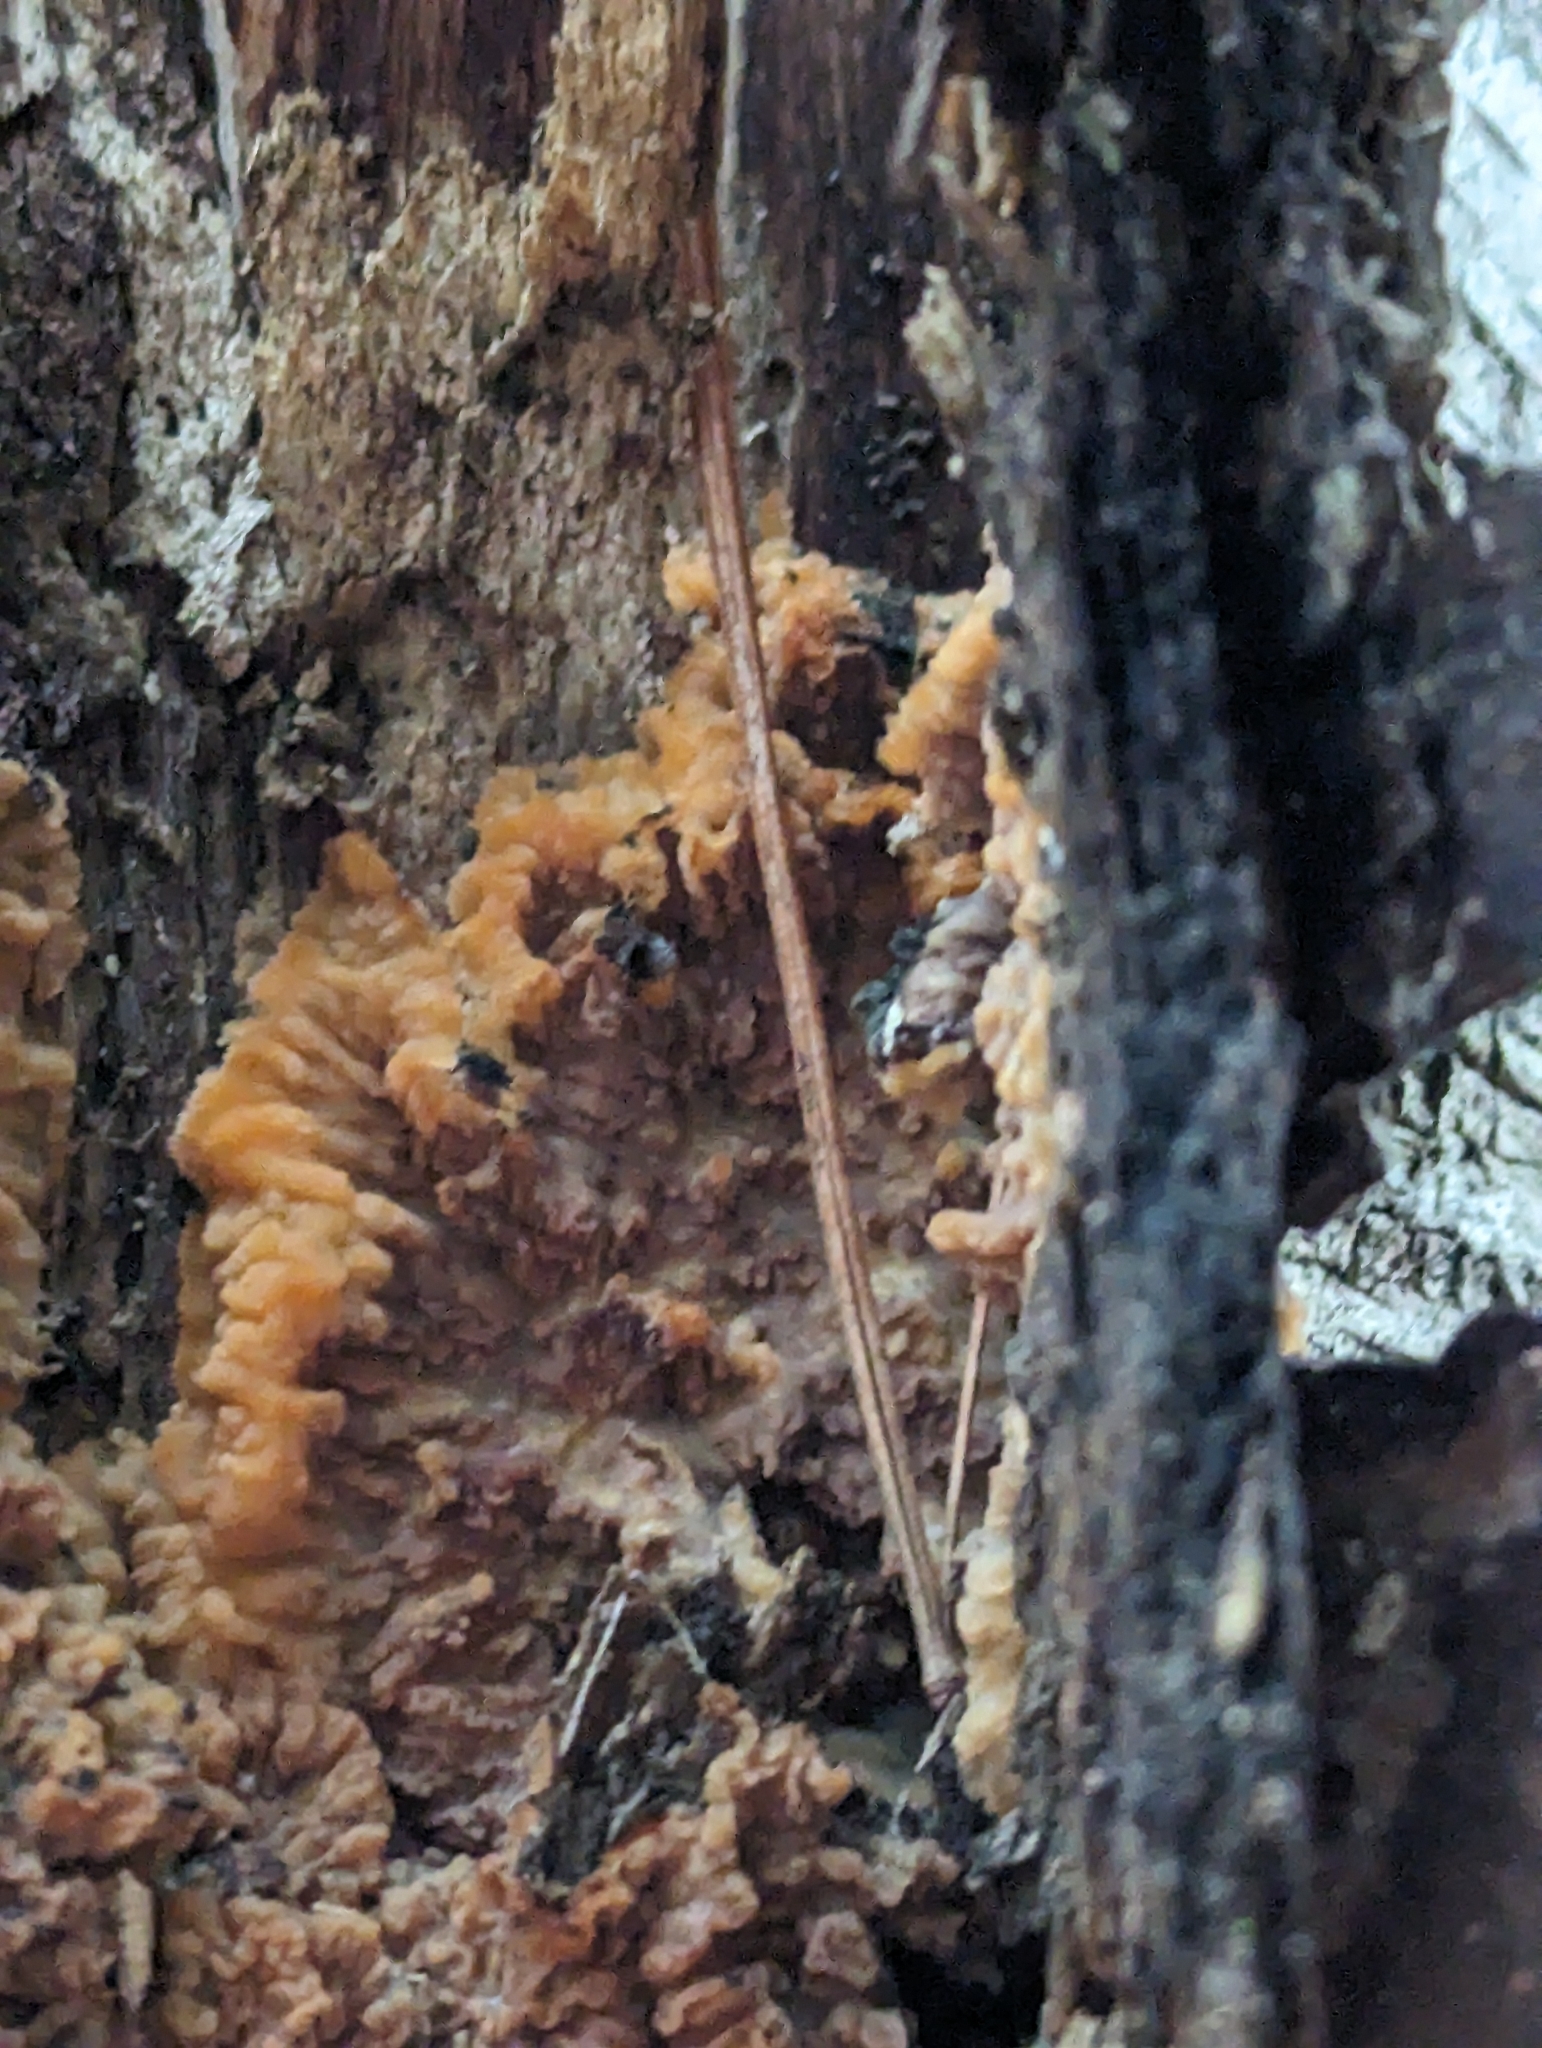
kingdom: Fungi
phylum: Basidiomycota
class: Agaricomycetes
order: Polyporales
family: Meruliaceae
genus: Phlebia
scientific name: Phlebia radiata
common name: Wrinkled crust
